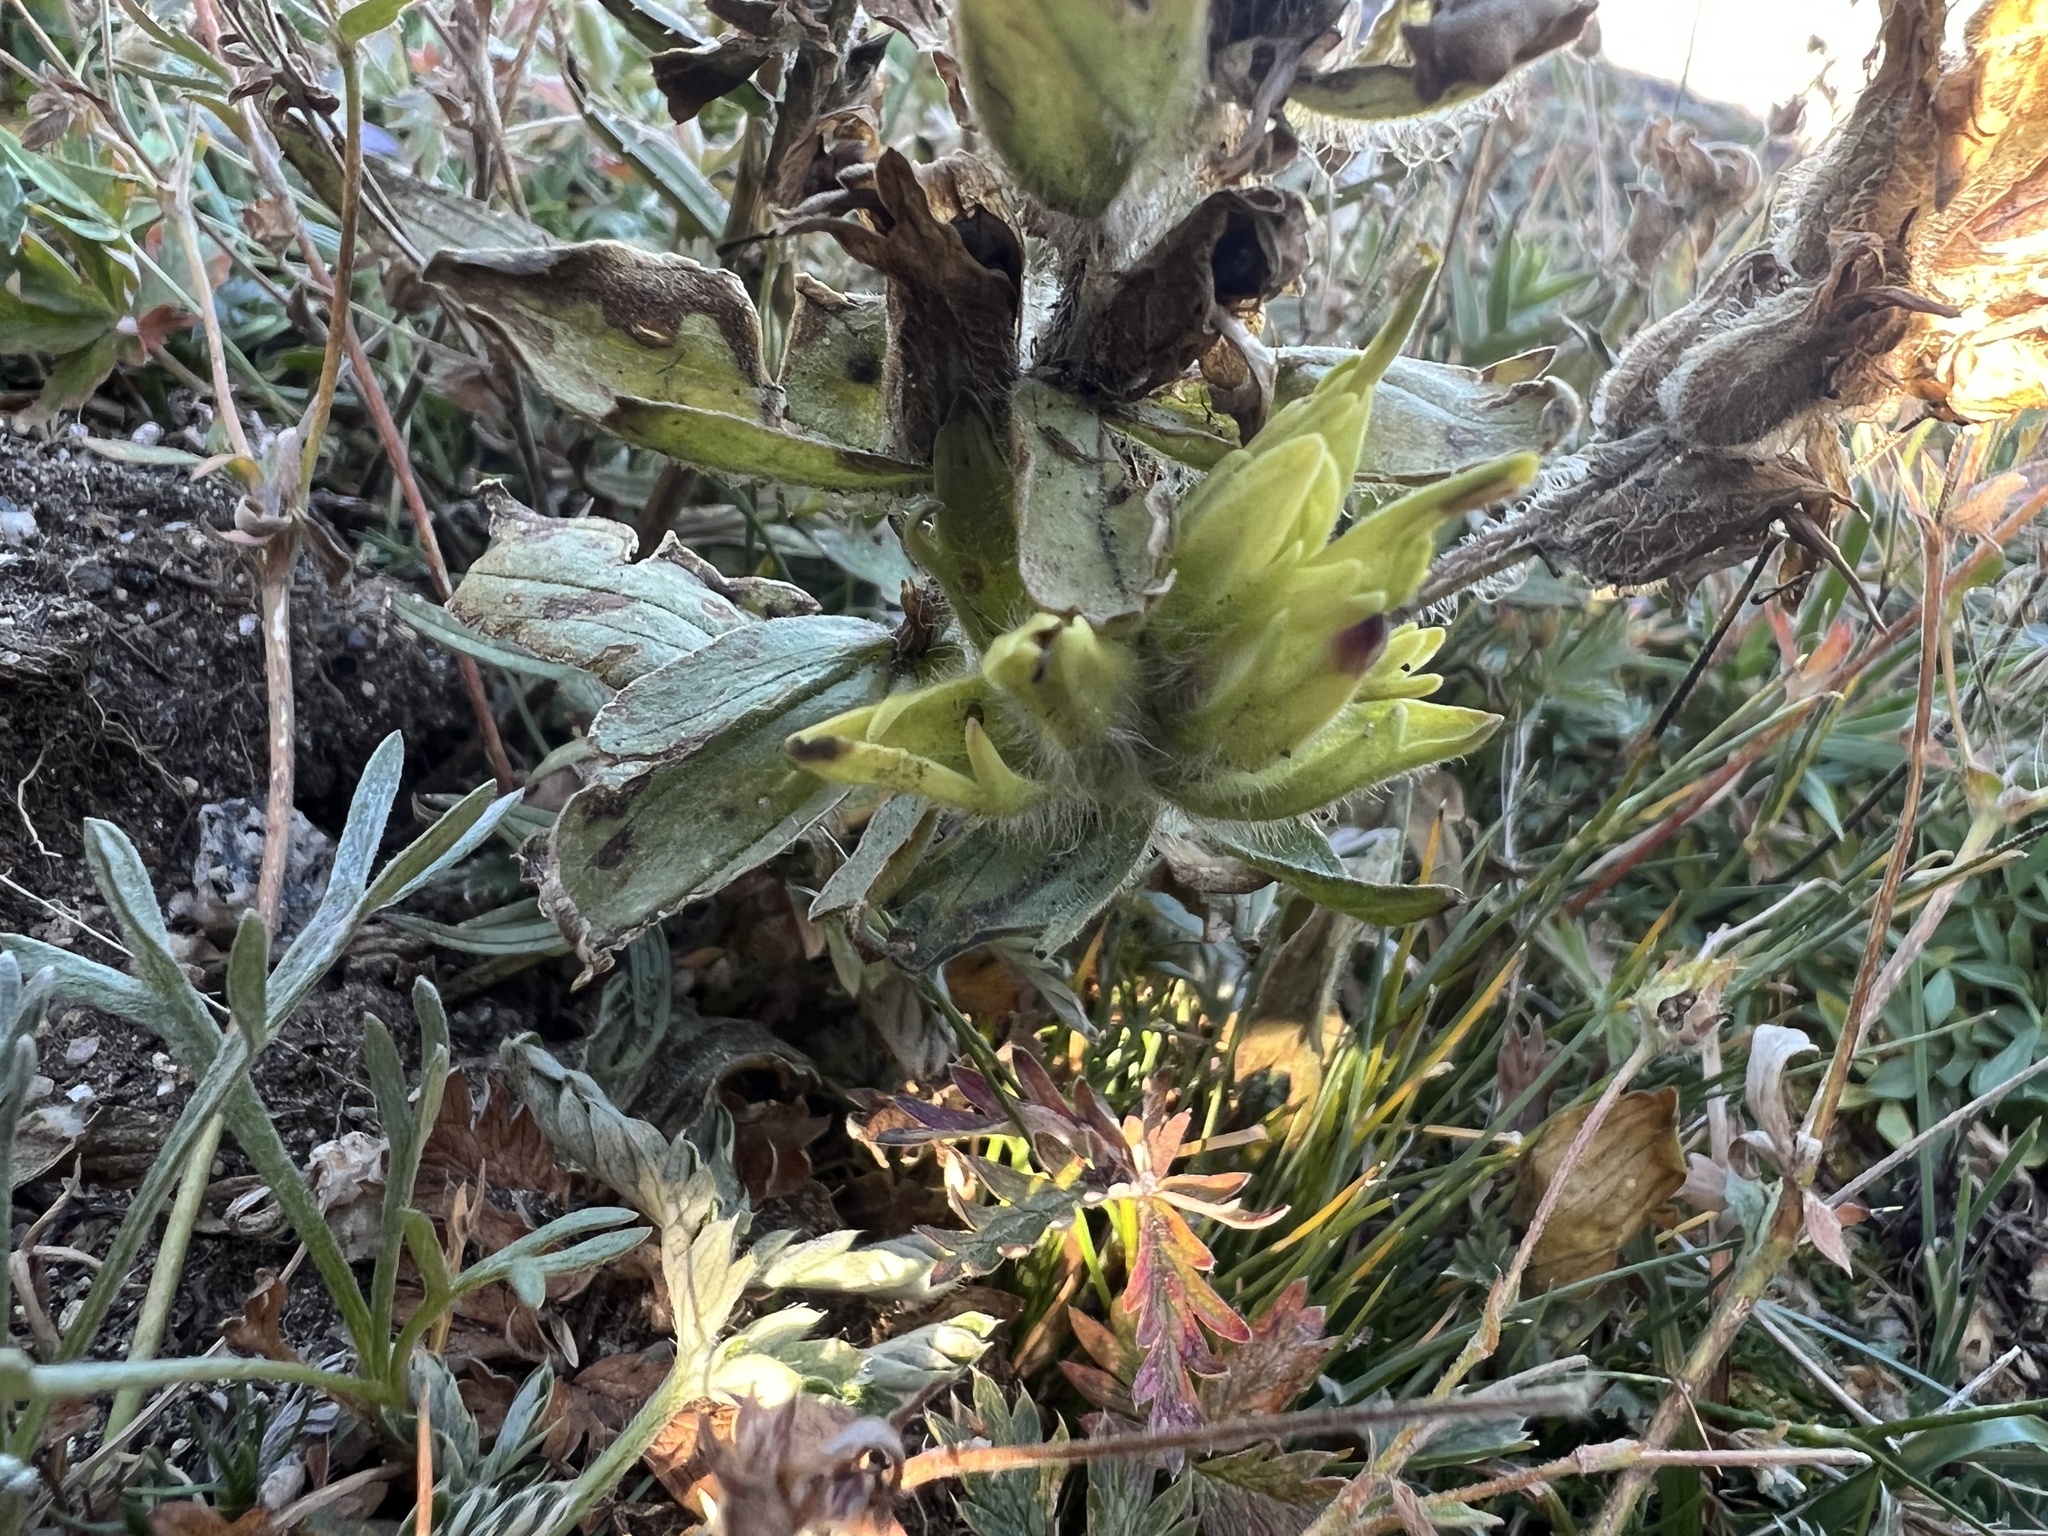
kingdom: Plantae
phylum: Tracheophyta
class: Magnoliopsida
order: Lamiales
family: Orobanchaceae
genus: Castilleja
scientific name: Castilleja occidentalis
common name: Western paintbrush
